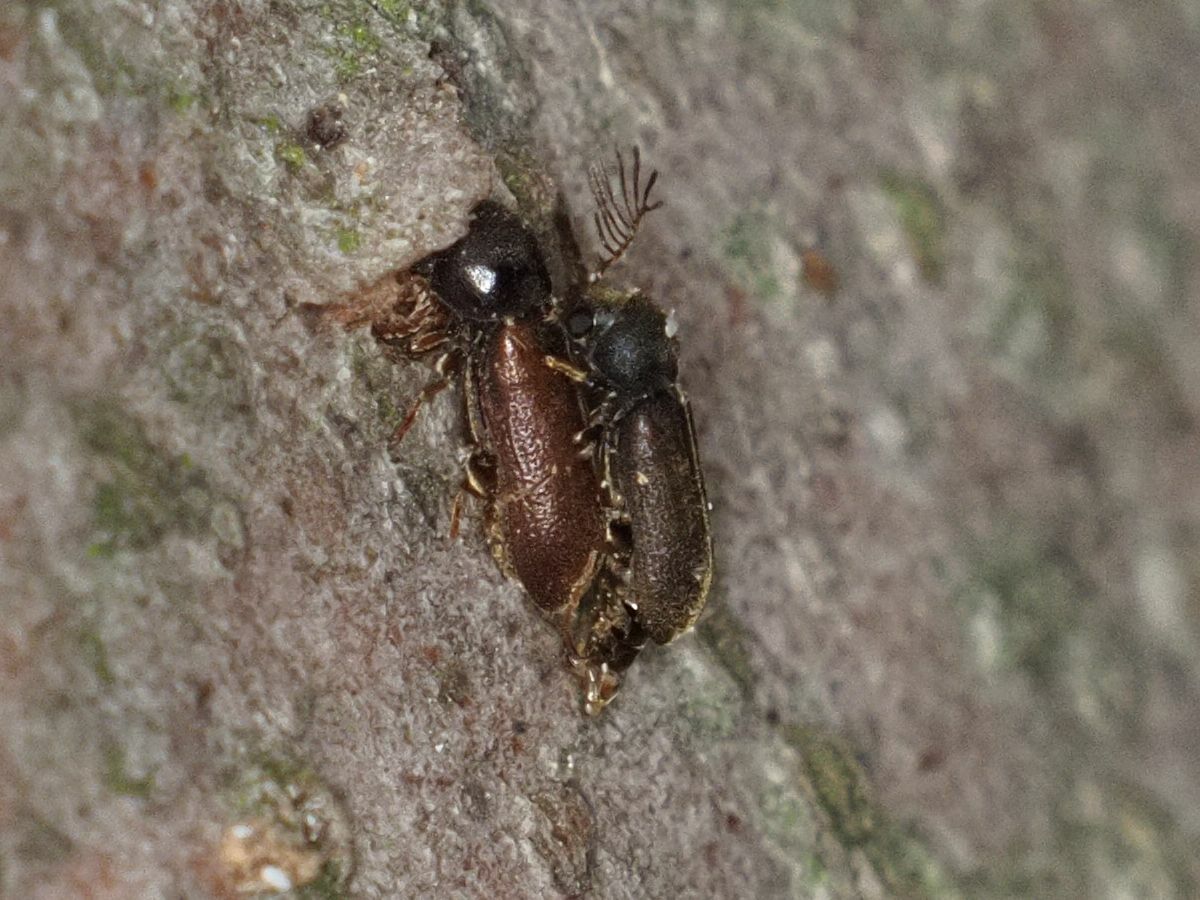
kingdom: Animalia
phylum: Arthropoda
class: Insecta
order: Coleoptera
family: Anobiidae
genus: Ptilinus
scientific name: Ptilinus pectinicornis
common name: Fan-bearing wood-borer
